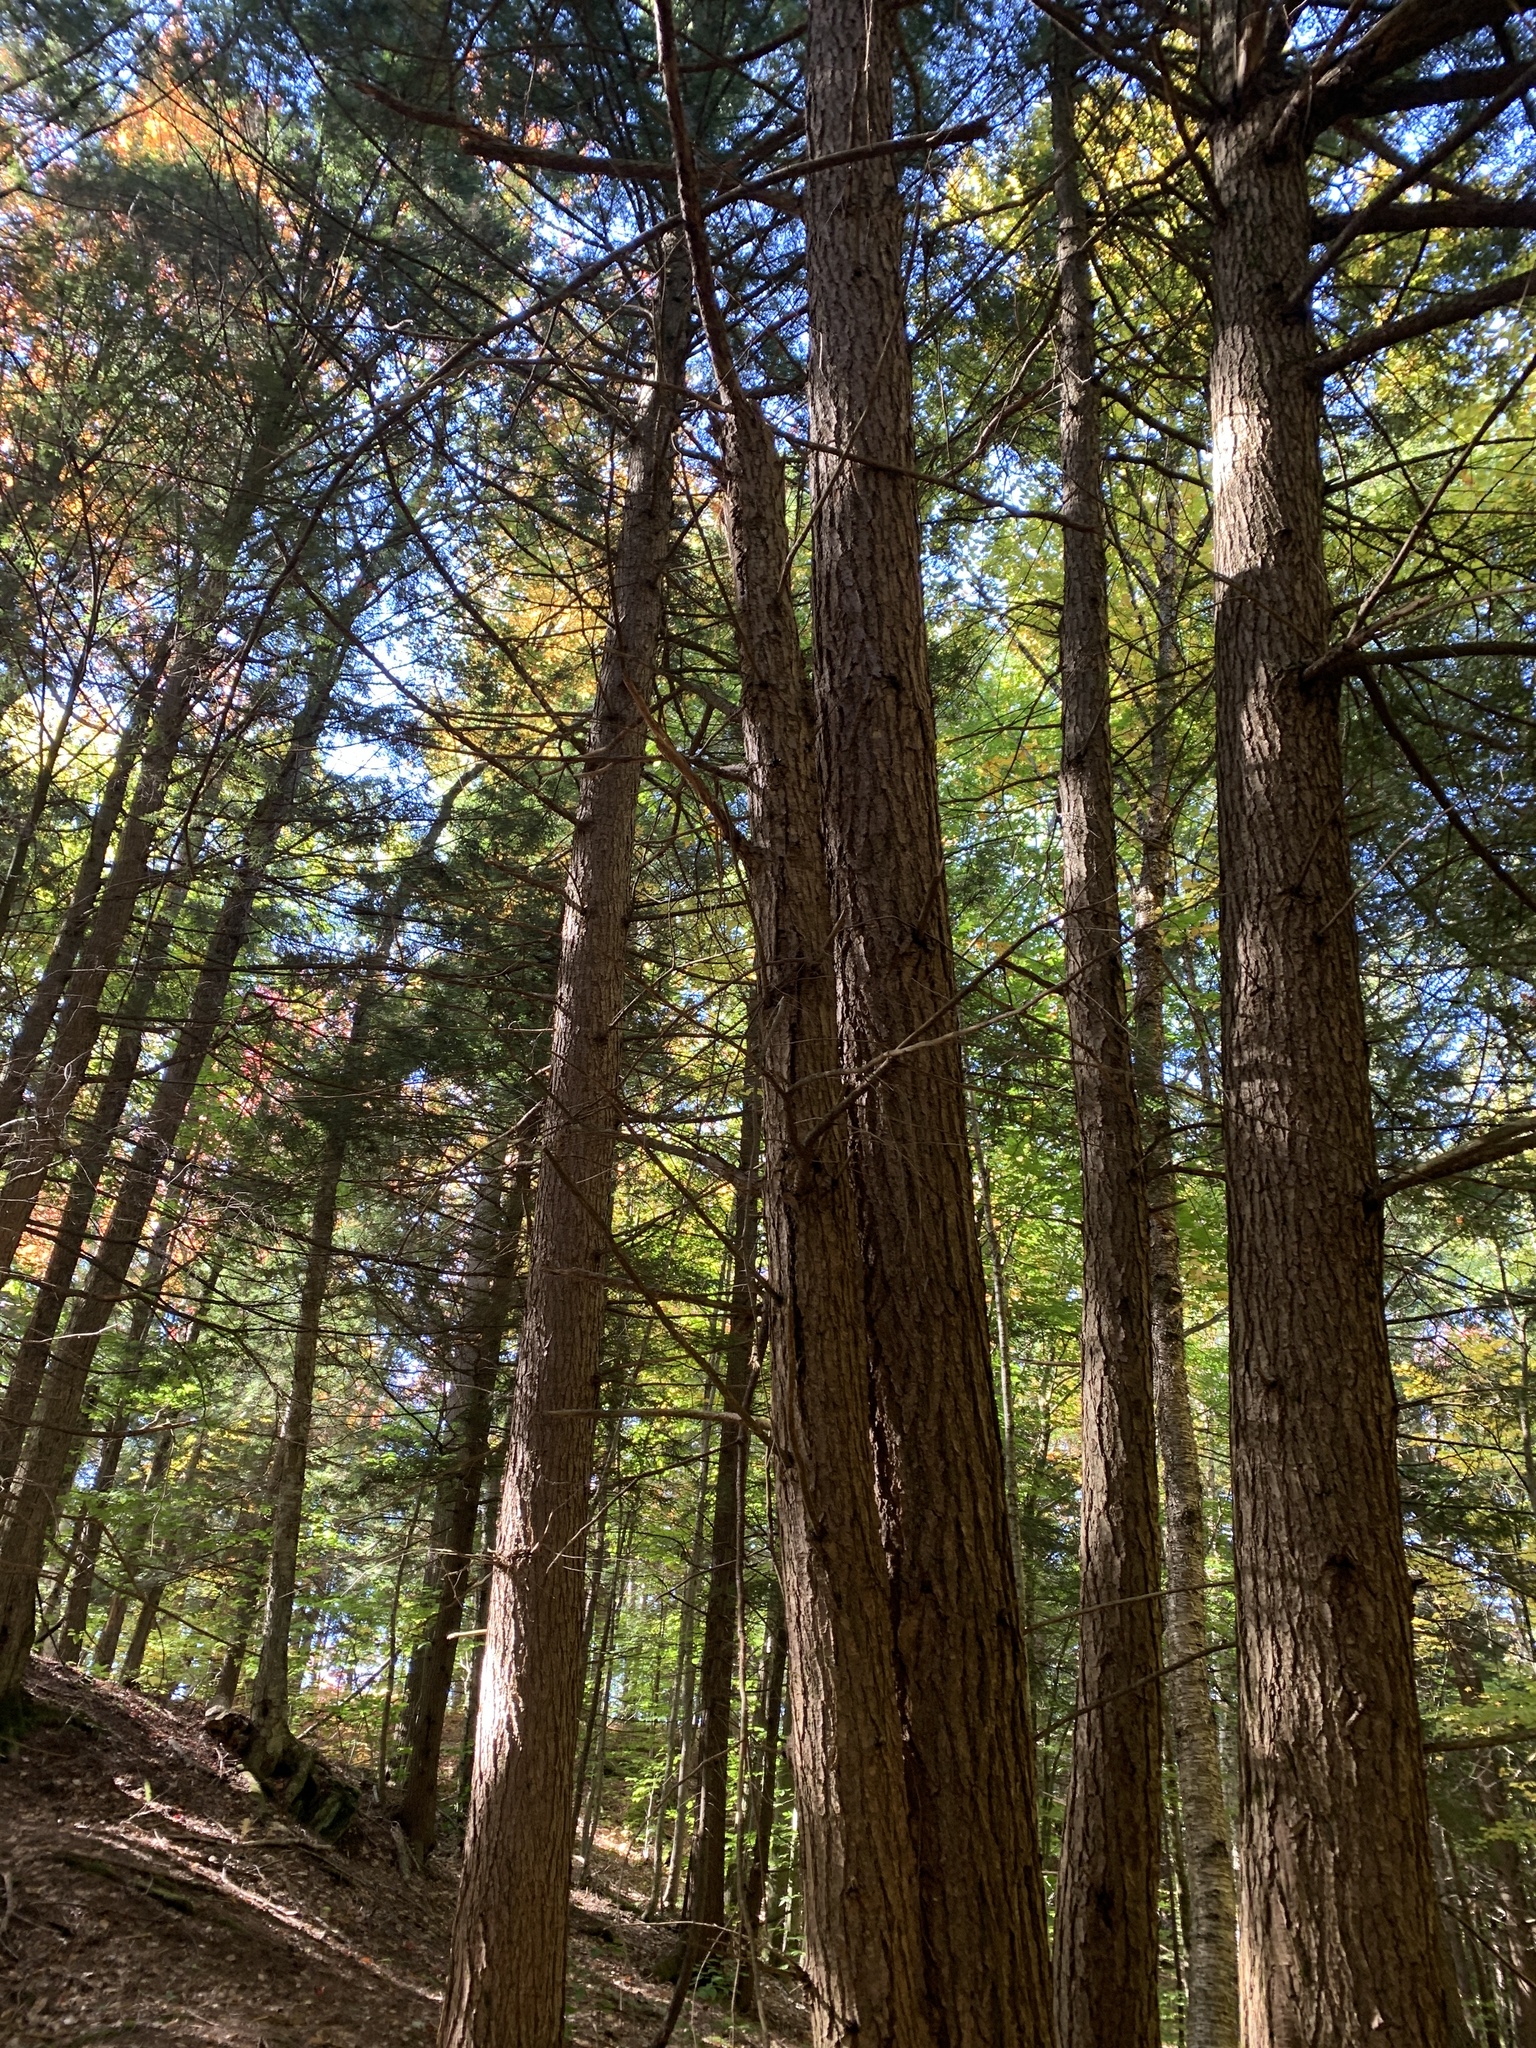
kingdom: Plantae
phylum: Tracheophyta
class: Pinopsida
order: Pinales
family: Pinaceae
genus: Tsuga
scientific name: Tsuga canadensis
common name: Eastern hemlock
